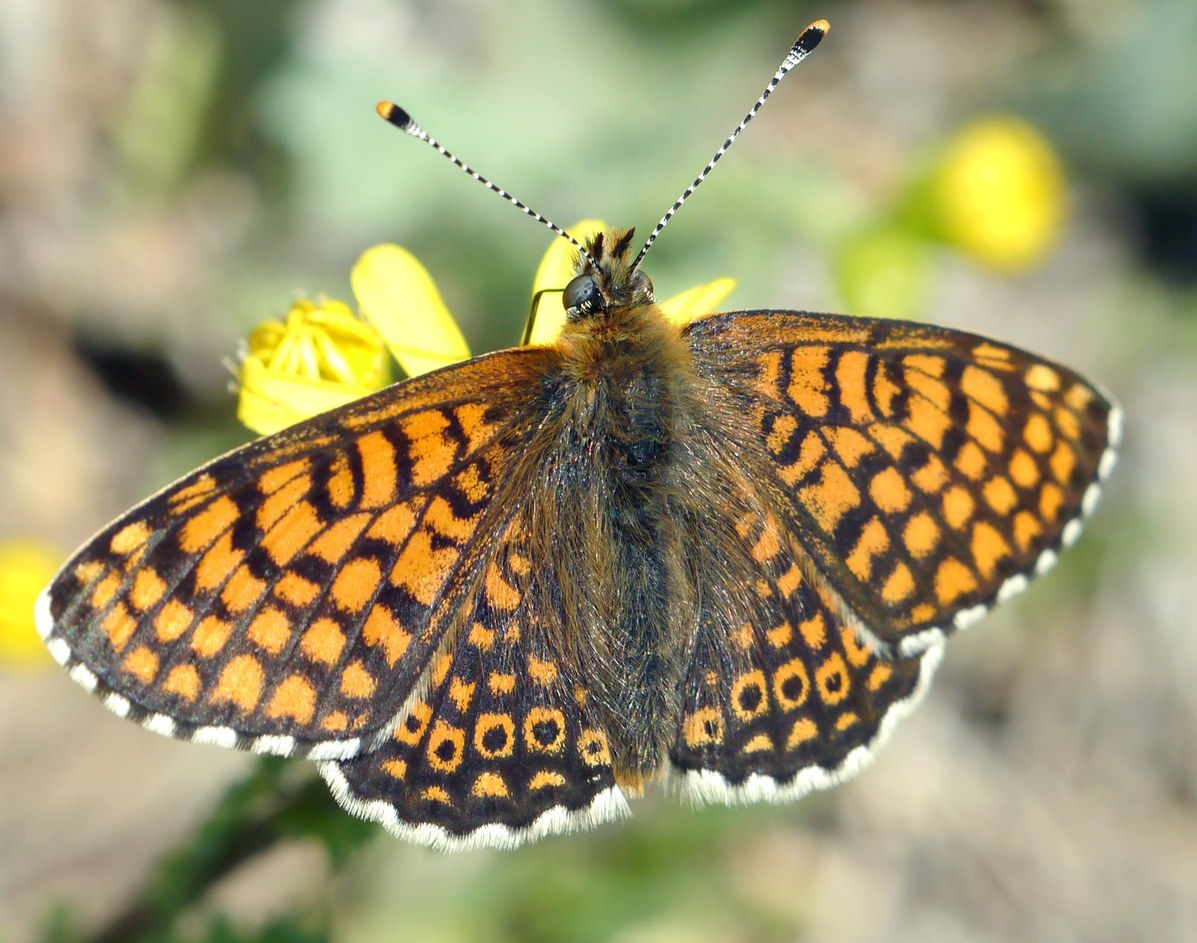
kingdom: Animalia
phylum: Arthropoda
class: Insecta
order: Lepidoptera
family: Nymphalidae
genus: Melitaea
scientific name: Melitaea cinxia
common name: Glanville fritillary
